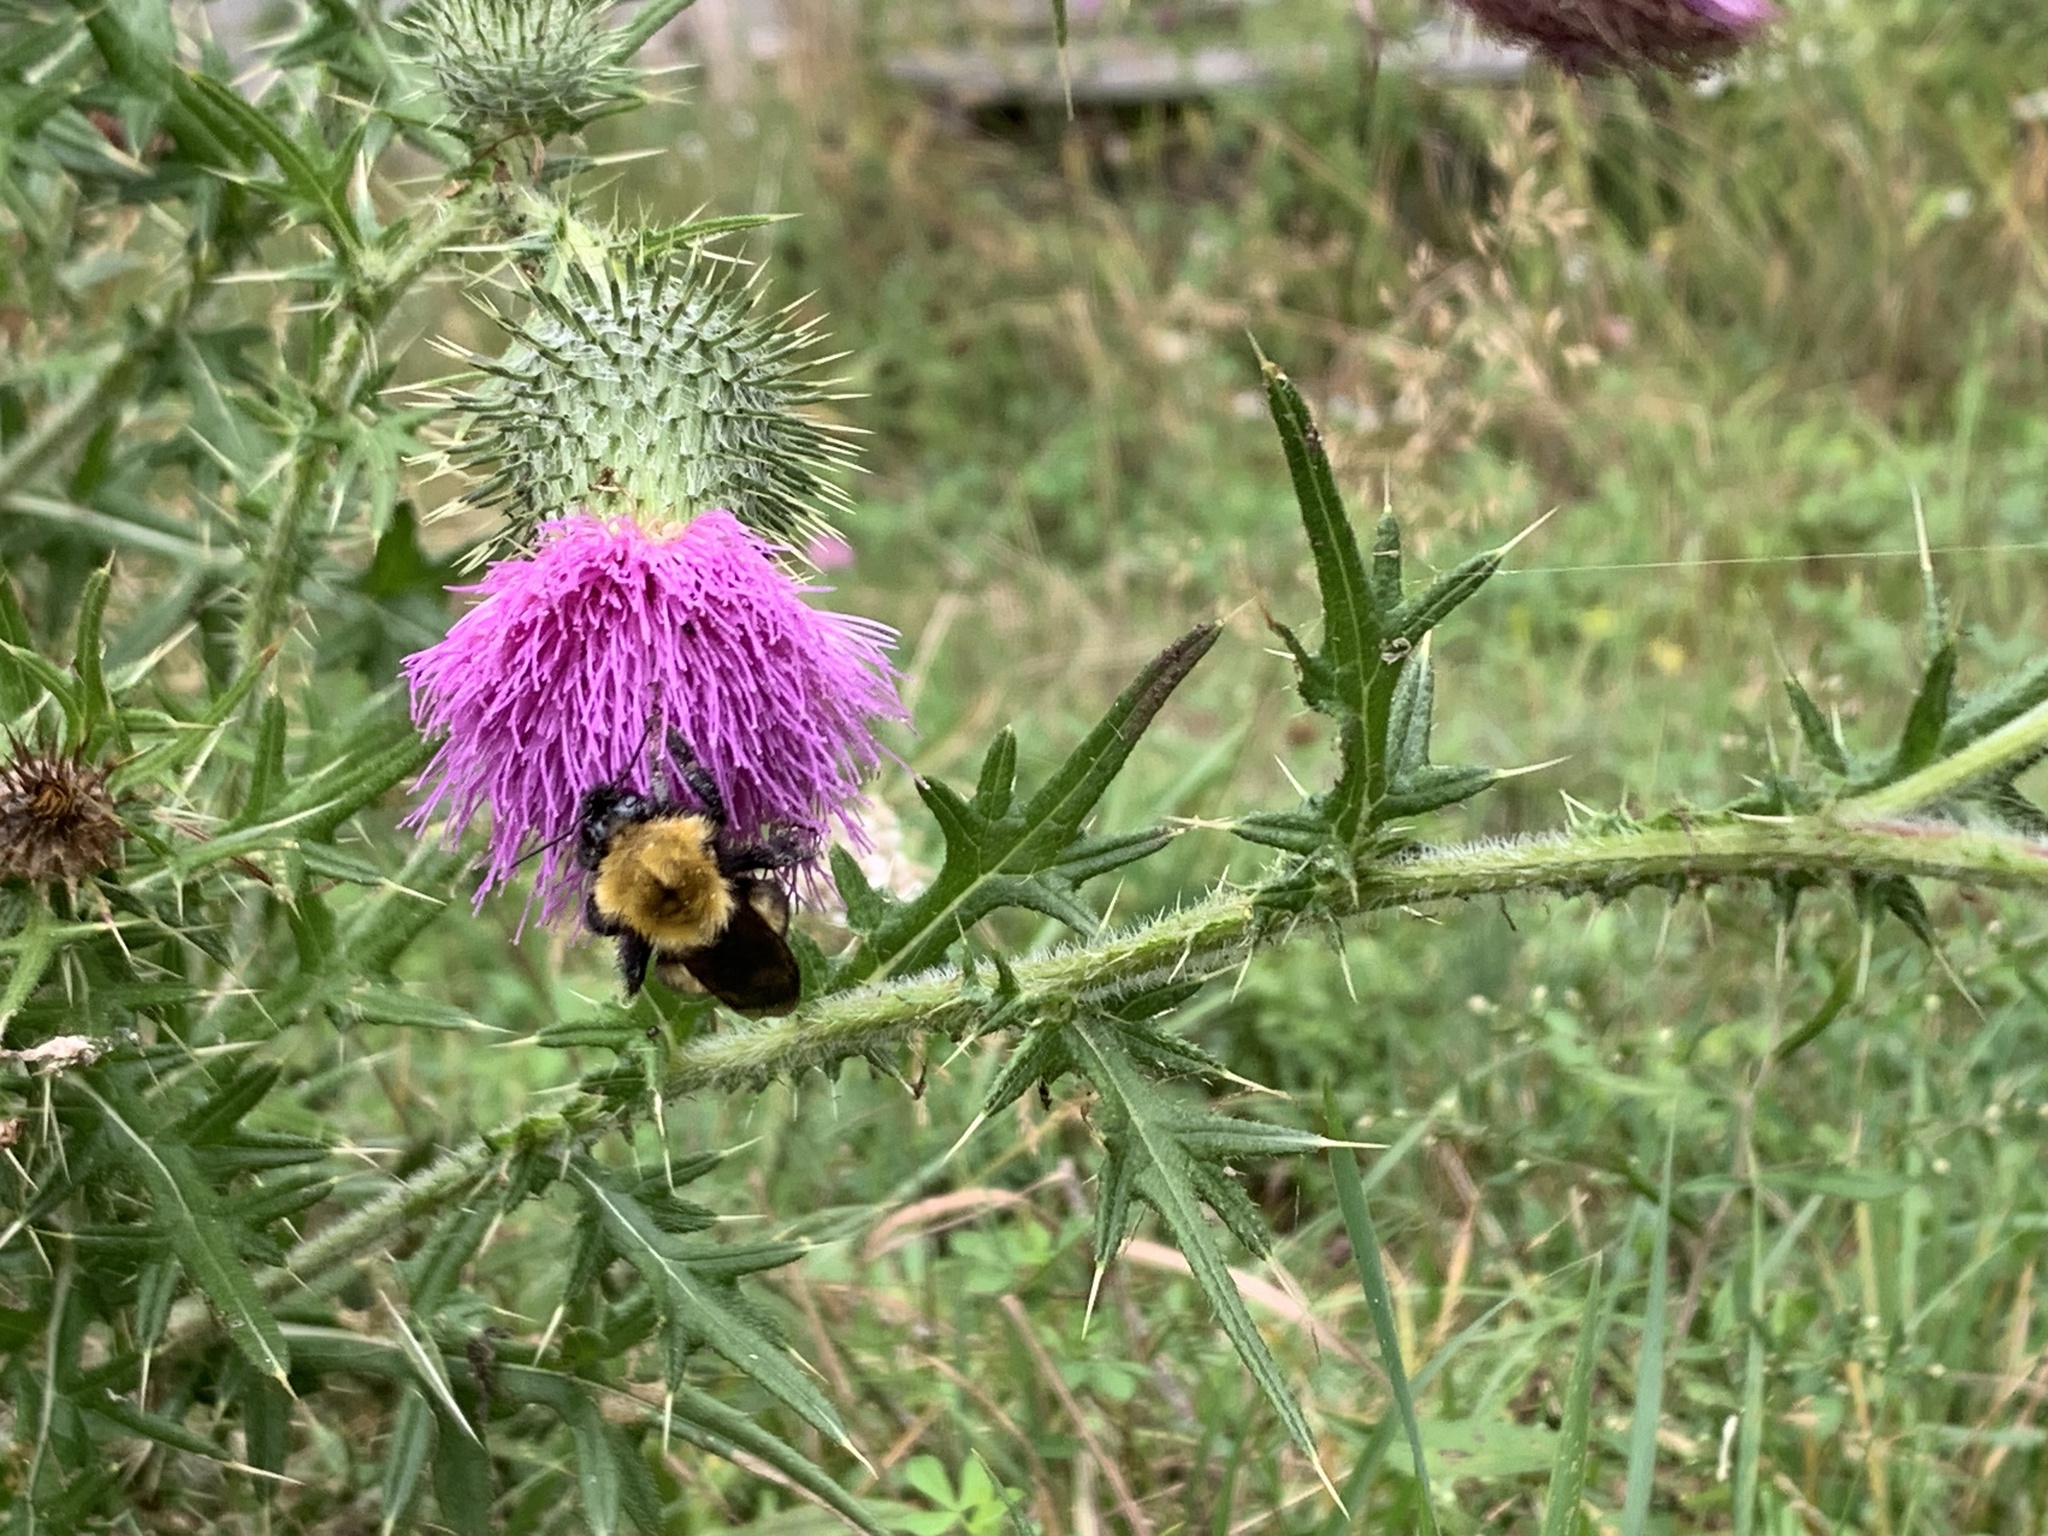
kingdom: Plantae
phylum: Tracheophyta
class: Magnoliopsida
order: Asterales
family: Asteraceae
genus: Cirsium
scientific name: Cirsium vulgare
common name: Bull thistle
